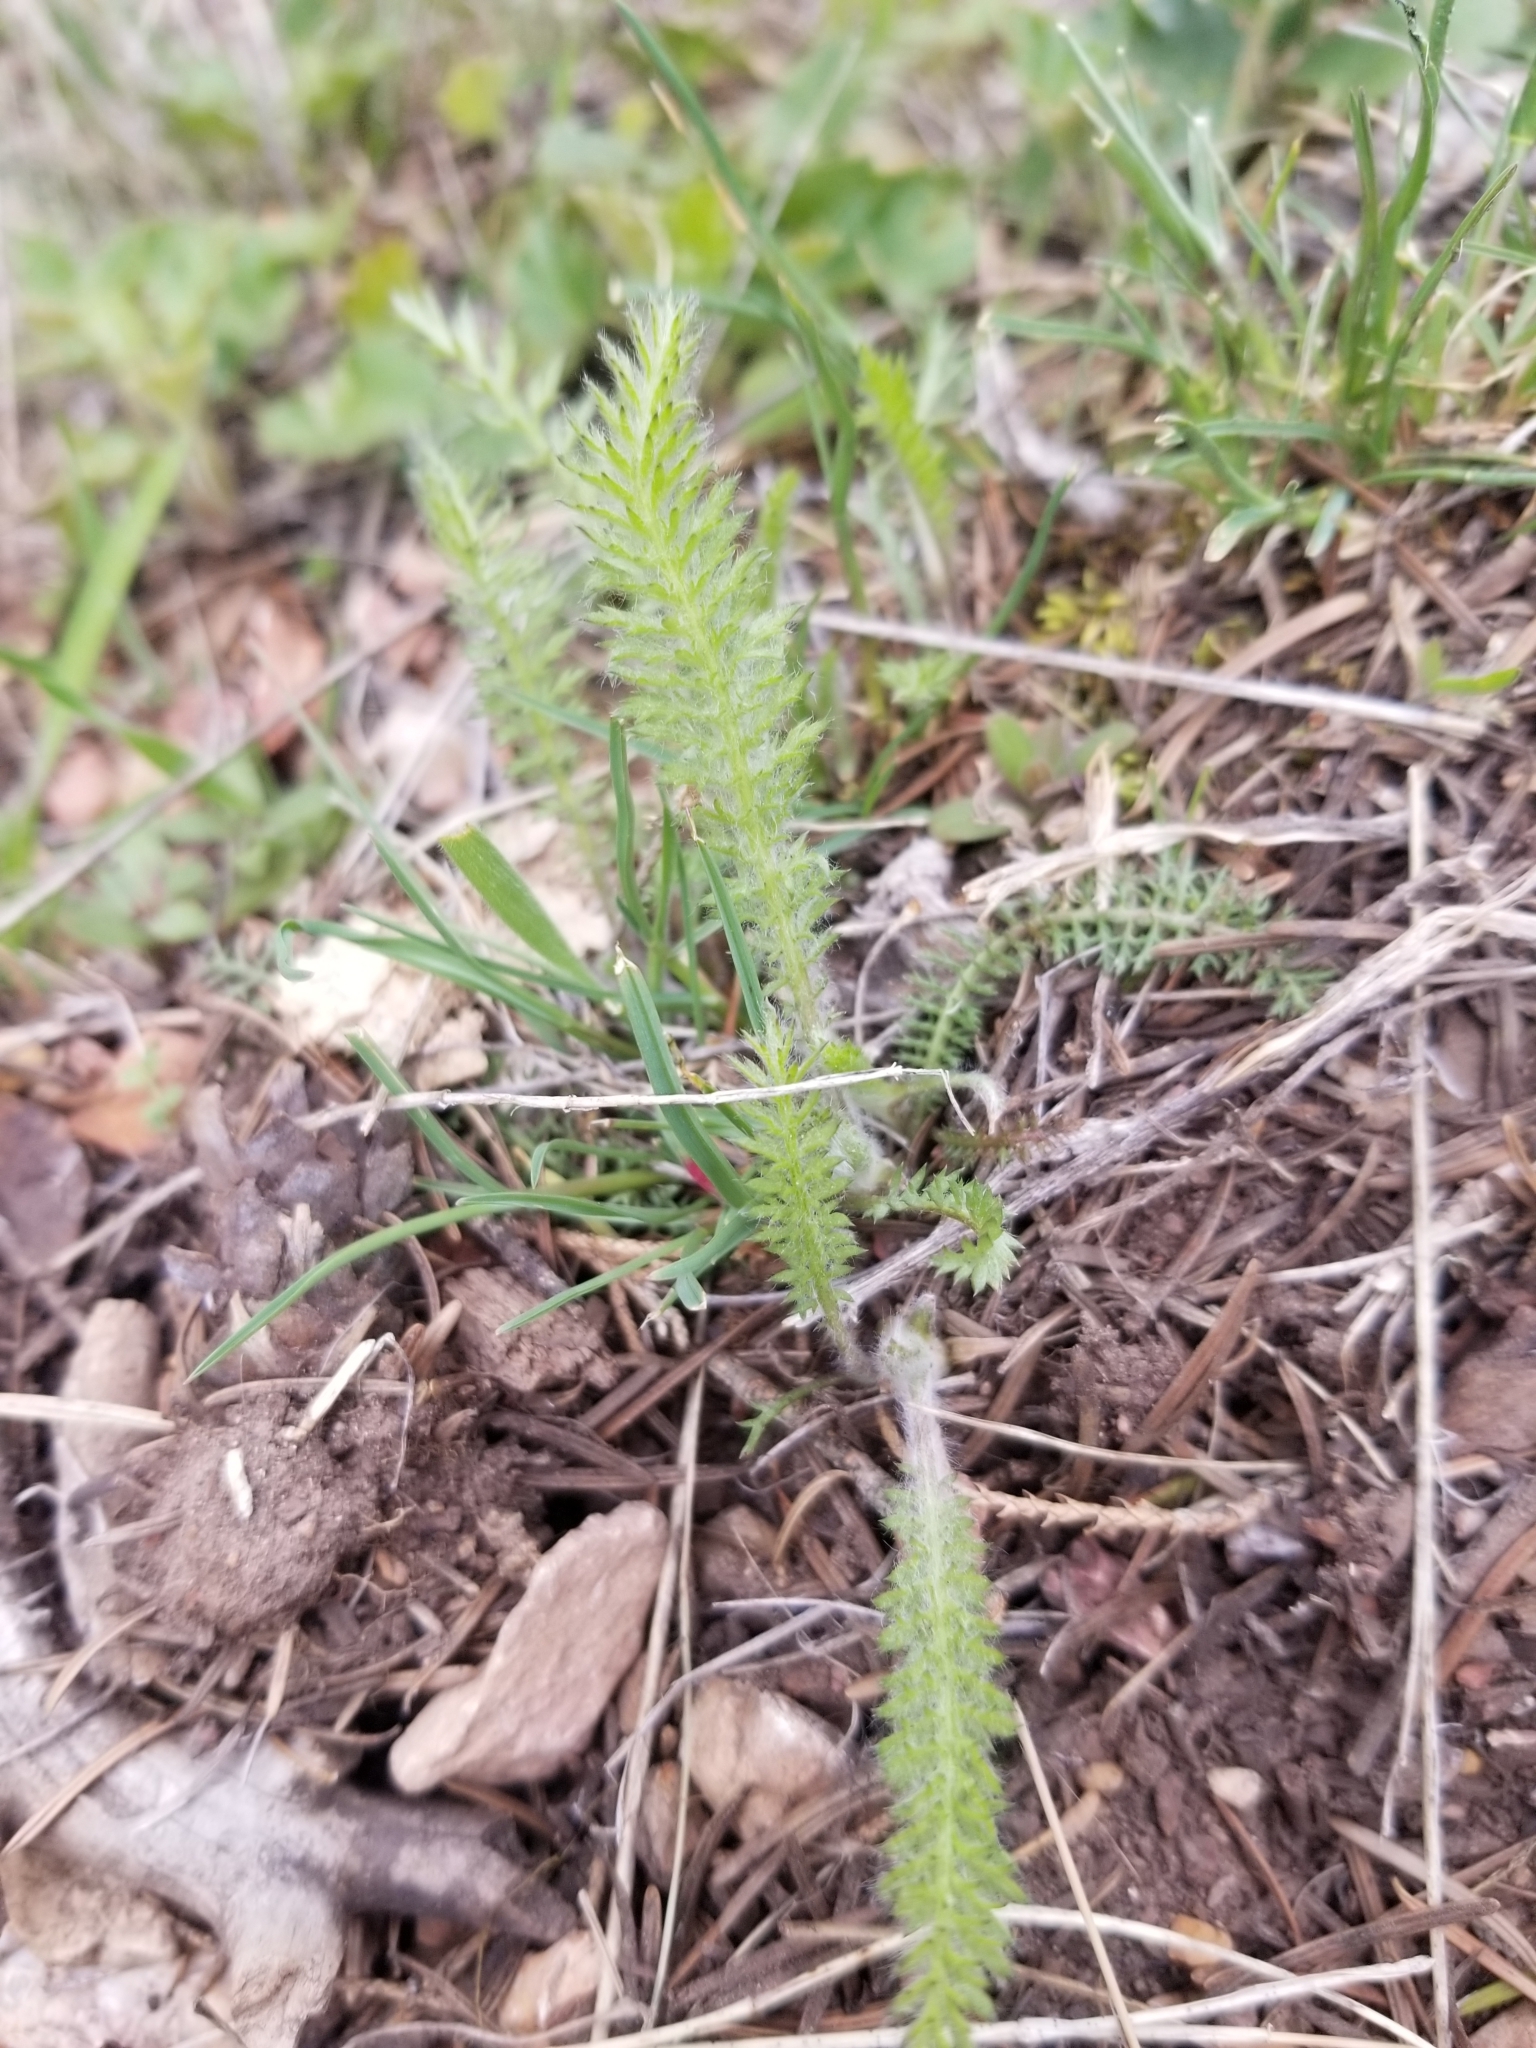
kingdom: Plantae
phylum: Tracheophyta
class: Magnoliopsida
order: Asterales
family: Asteraceae
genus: Achillea
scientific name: Achillea millefolium
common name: Yarrow
